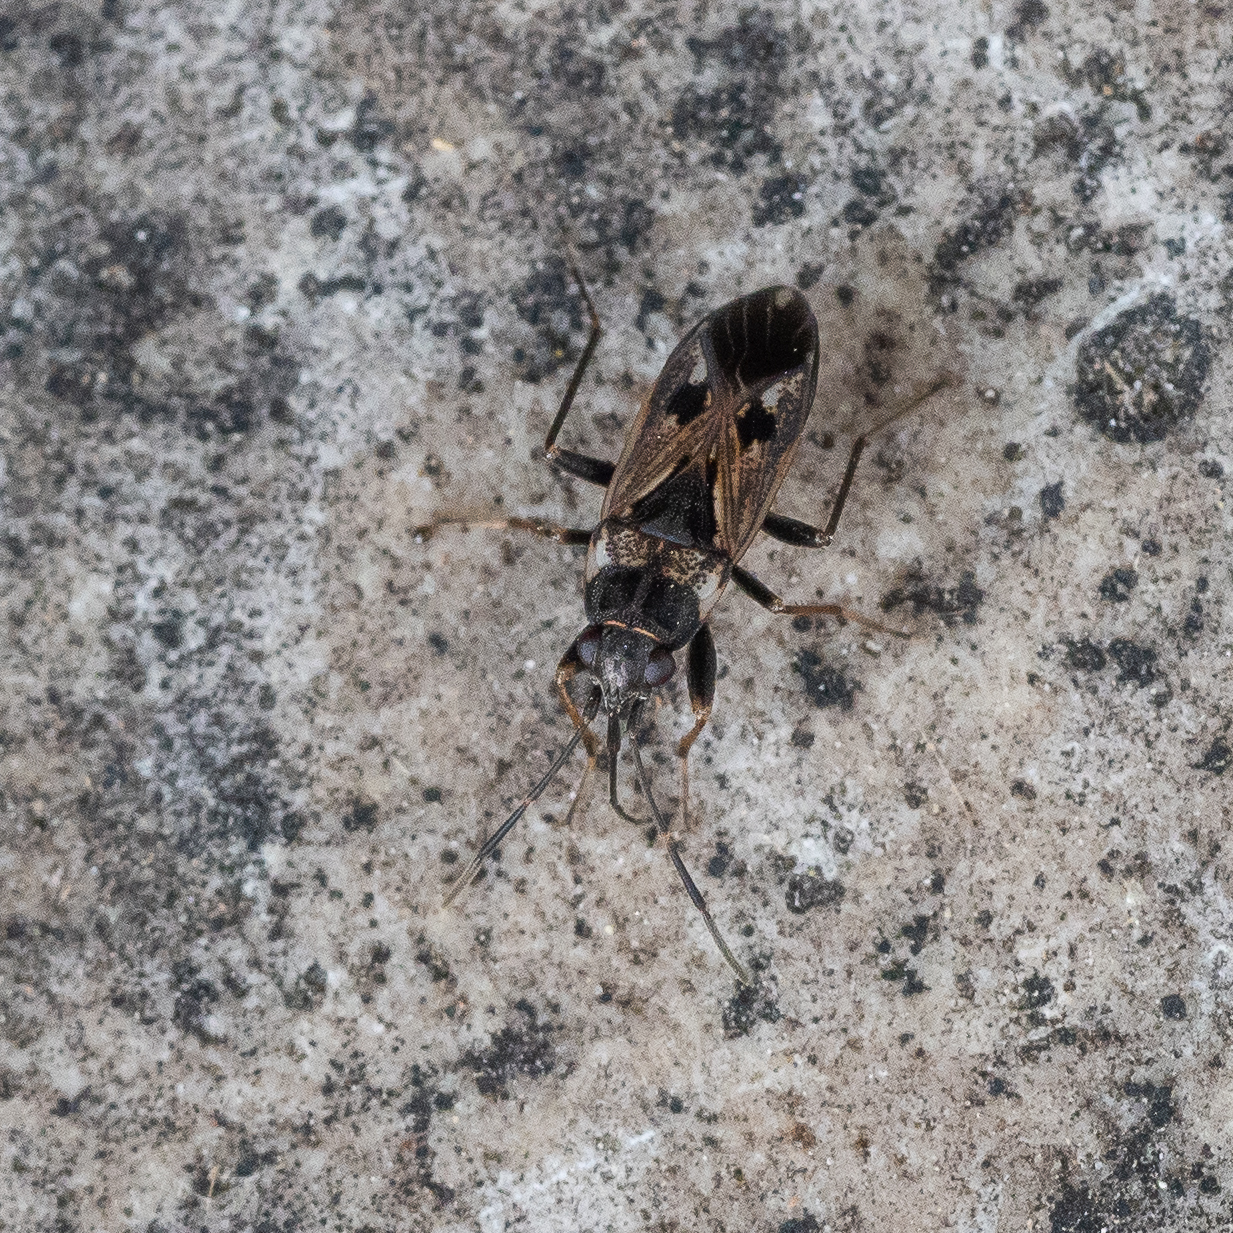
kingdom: Animalia
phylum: Arthropoda
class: Insecta
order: Hemiptera
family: Rhyparochromidae
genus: Rhyparochromus
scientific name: Rhyparochromus vulgaris
